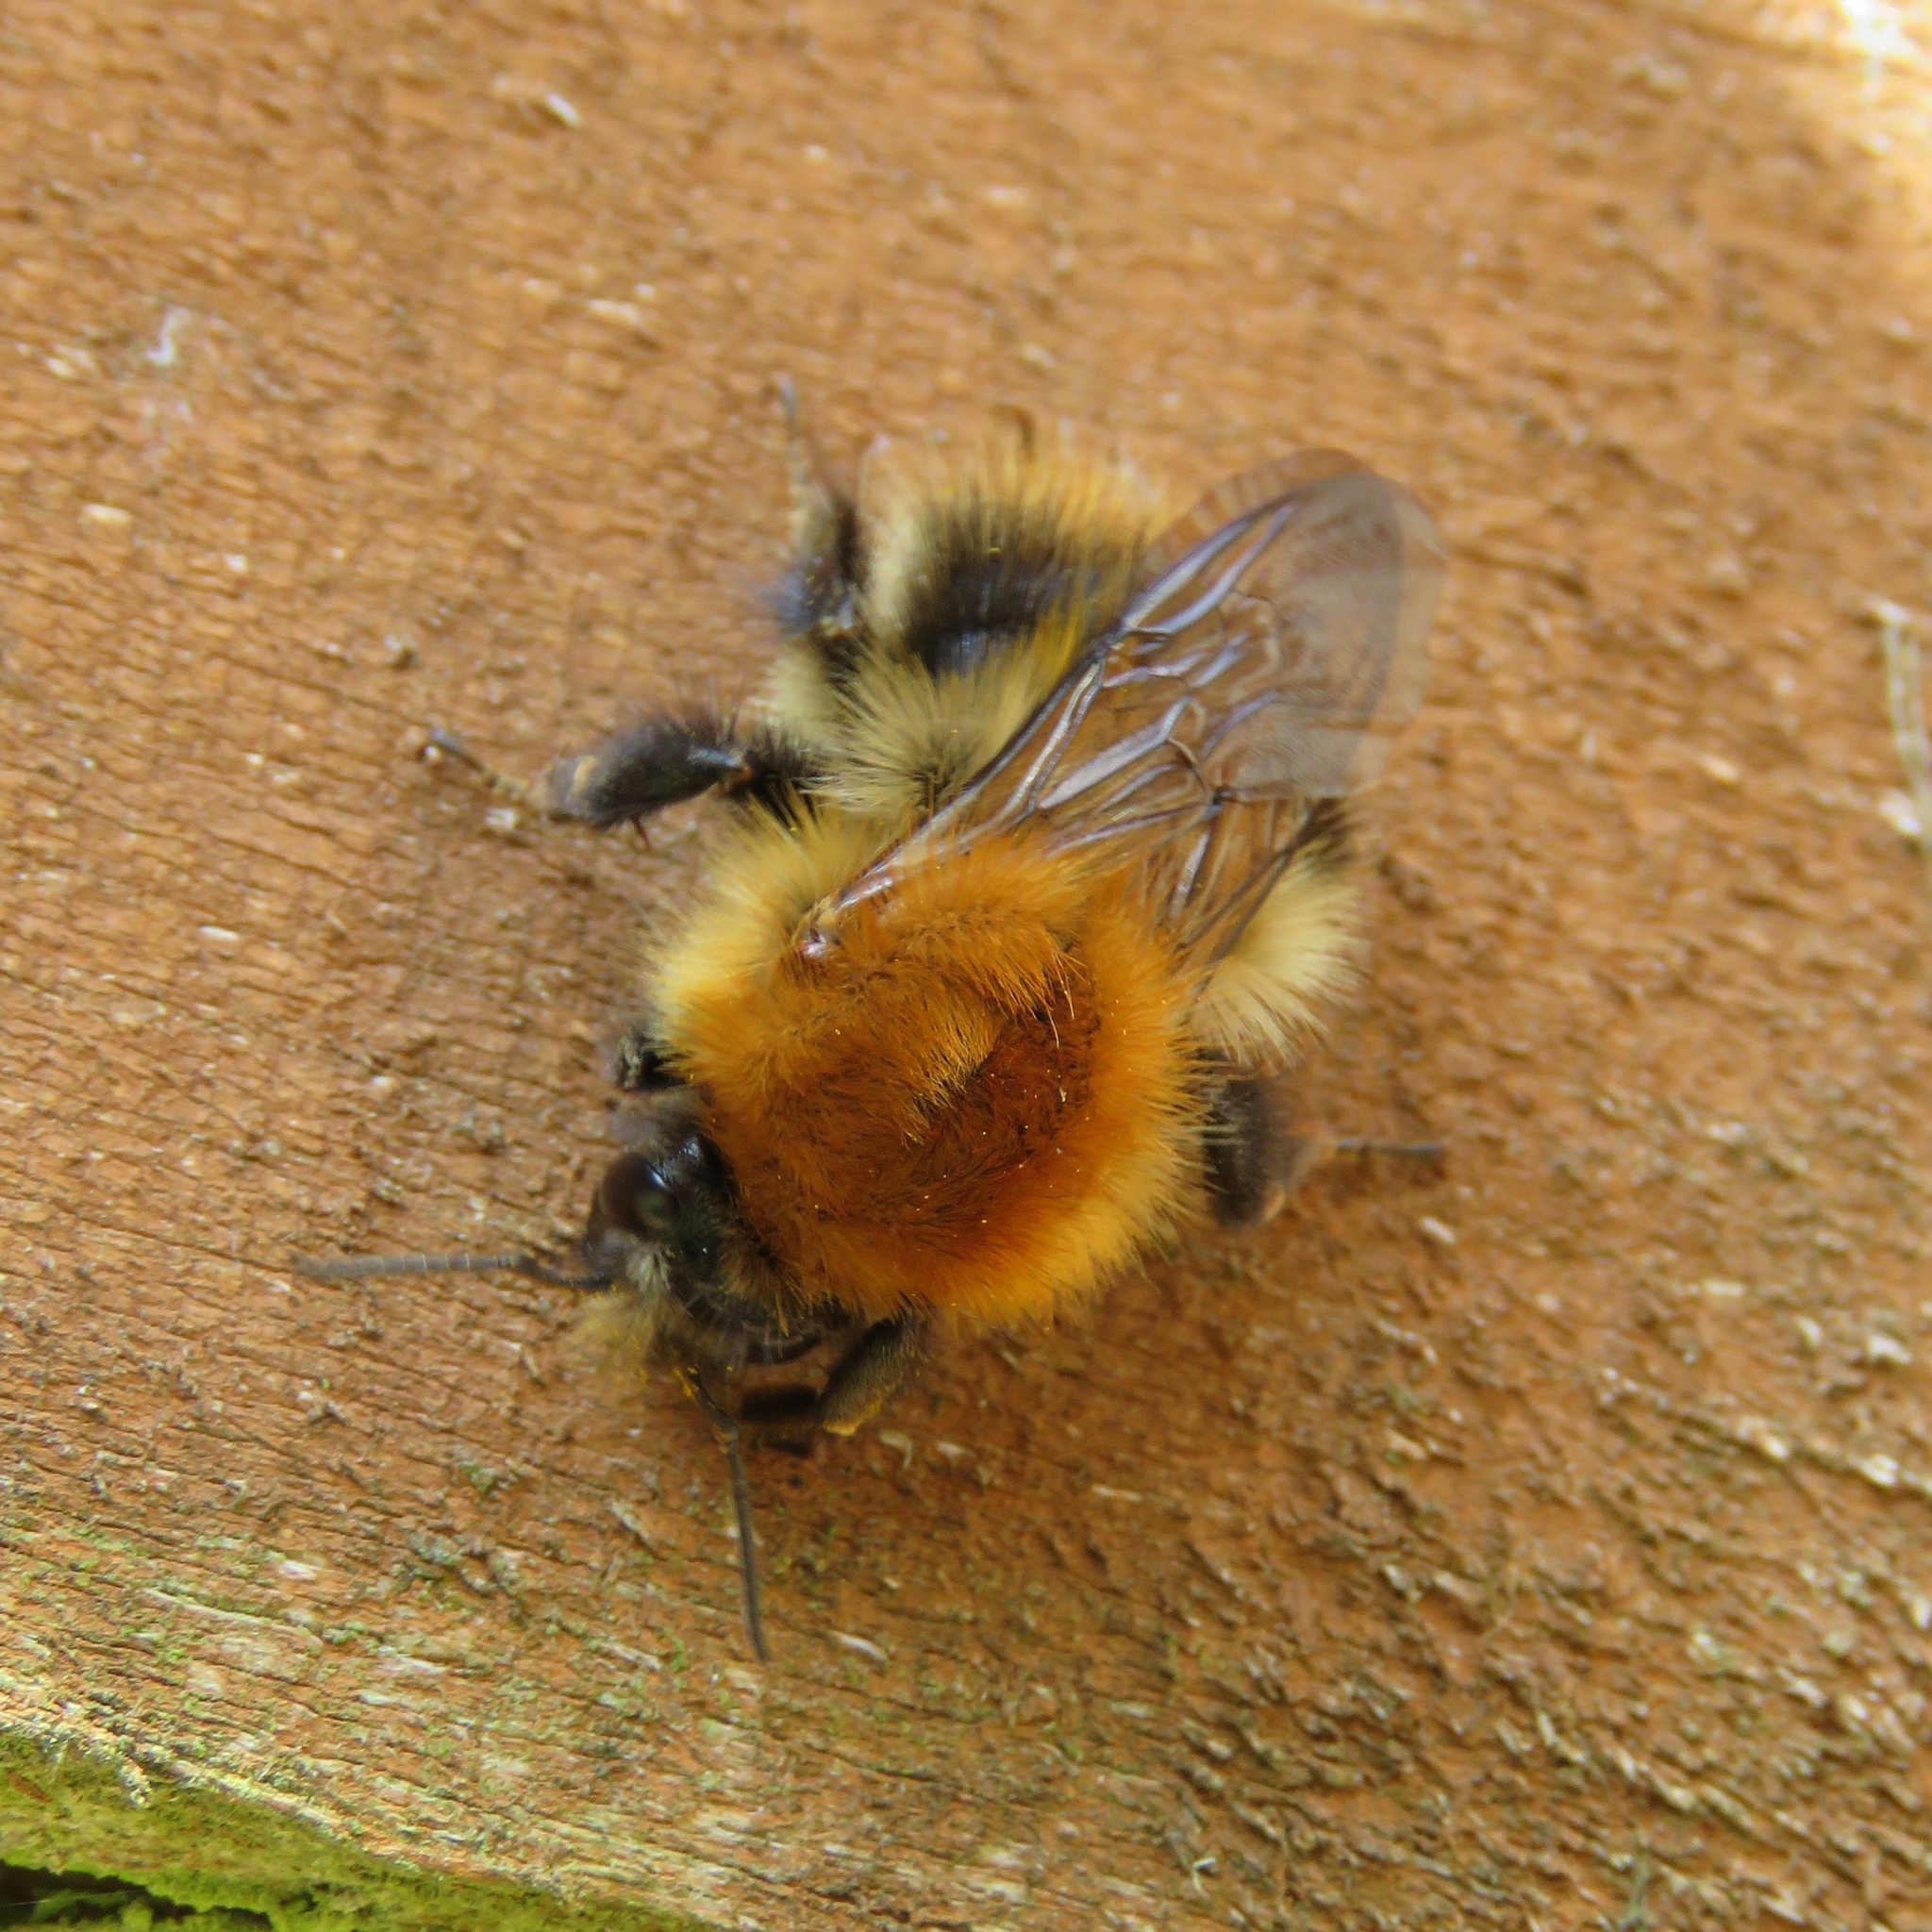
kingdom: Animalia
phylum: Arthropoda
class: Insecta
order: Hymenoptera
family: Apidae
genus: Bombus
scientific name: Bombus pascuorum
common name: Common carder bee
